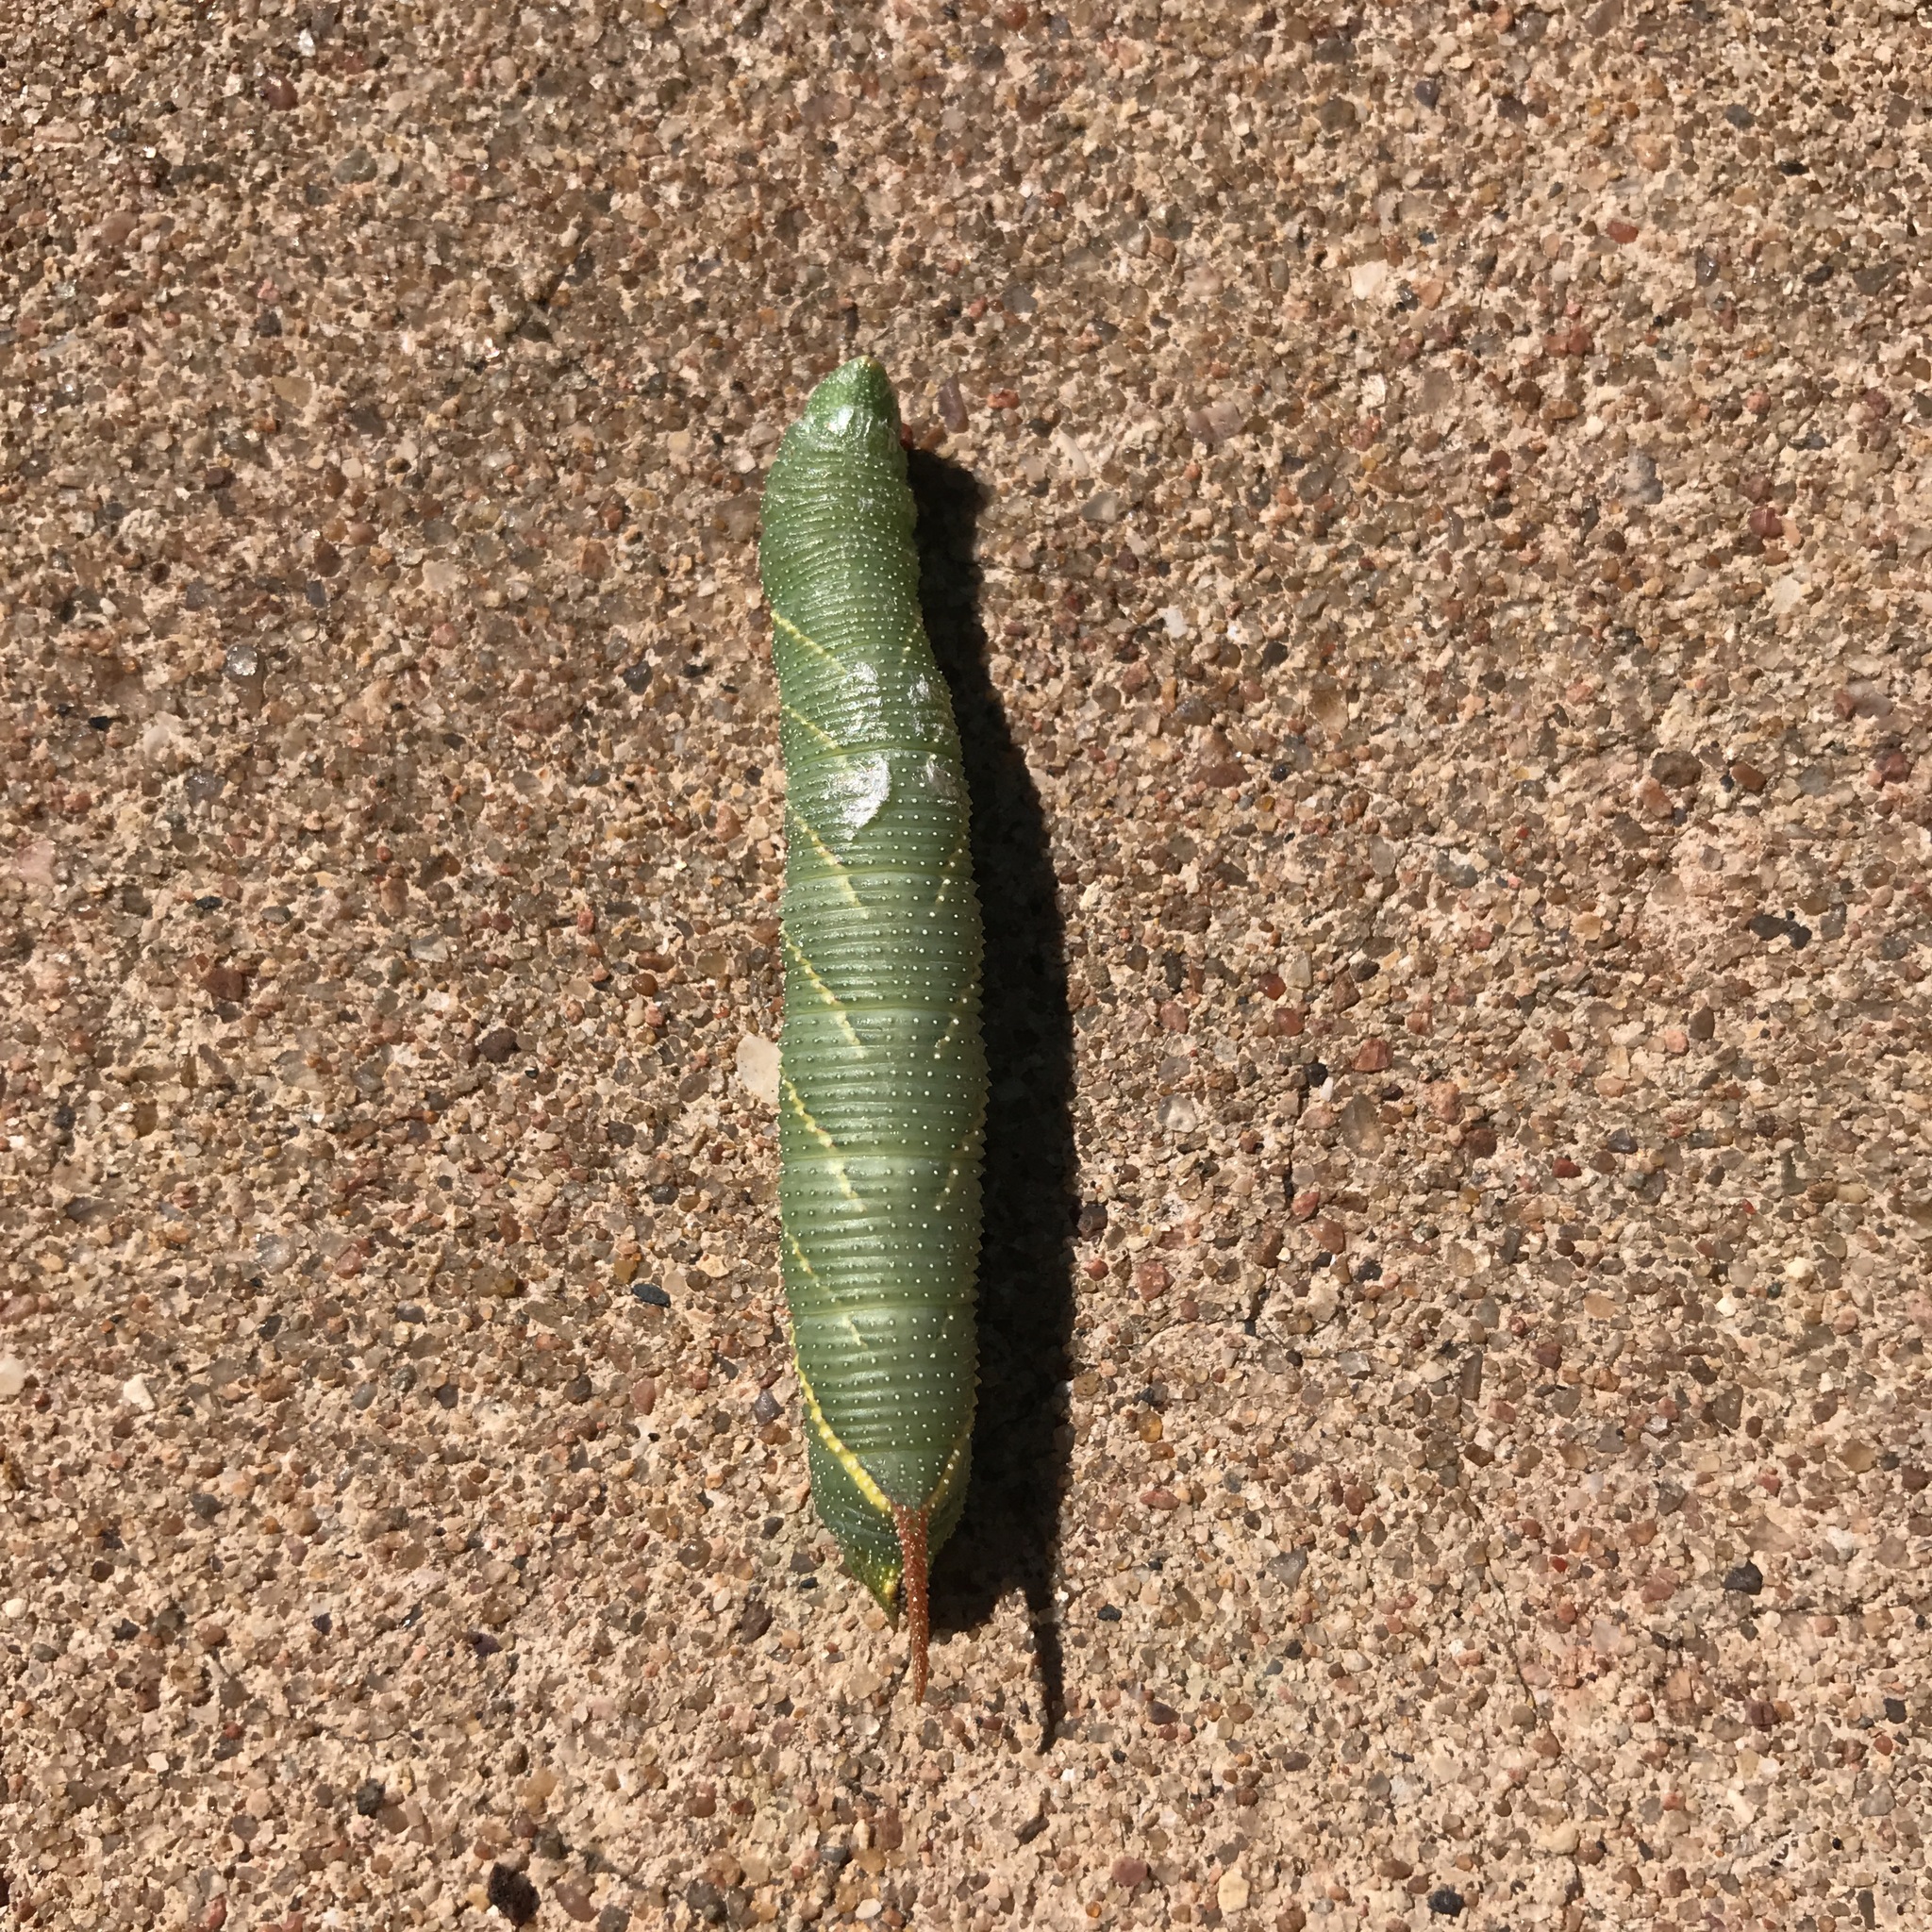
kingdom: Animalia
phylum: Arthropoda
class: Insecta
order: Lepidoptera
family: Sphingidae
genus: Amorpha
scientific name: Amorpha juglandis
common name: Walnut sphinx
